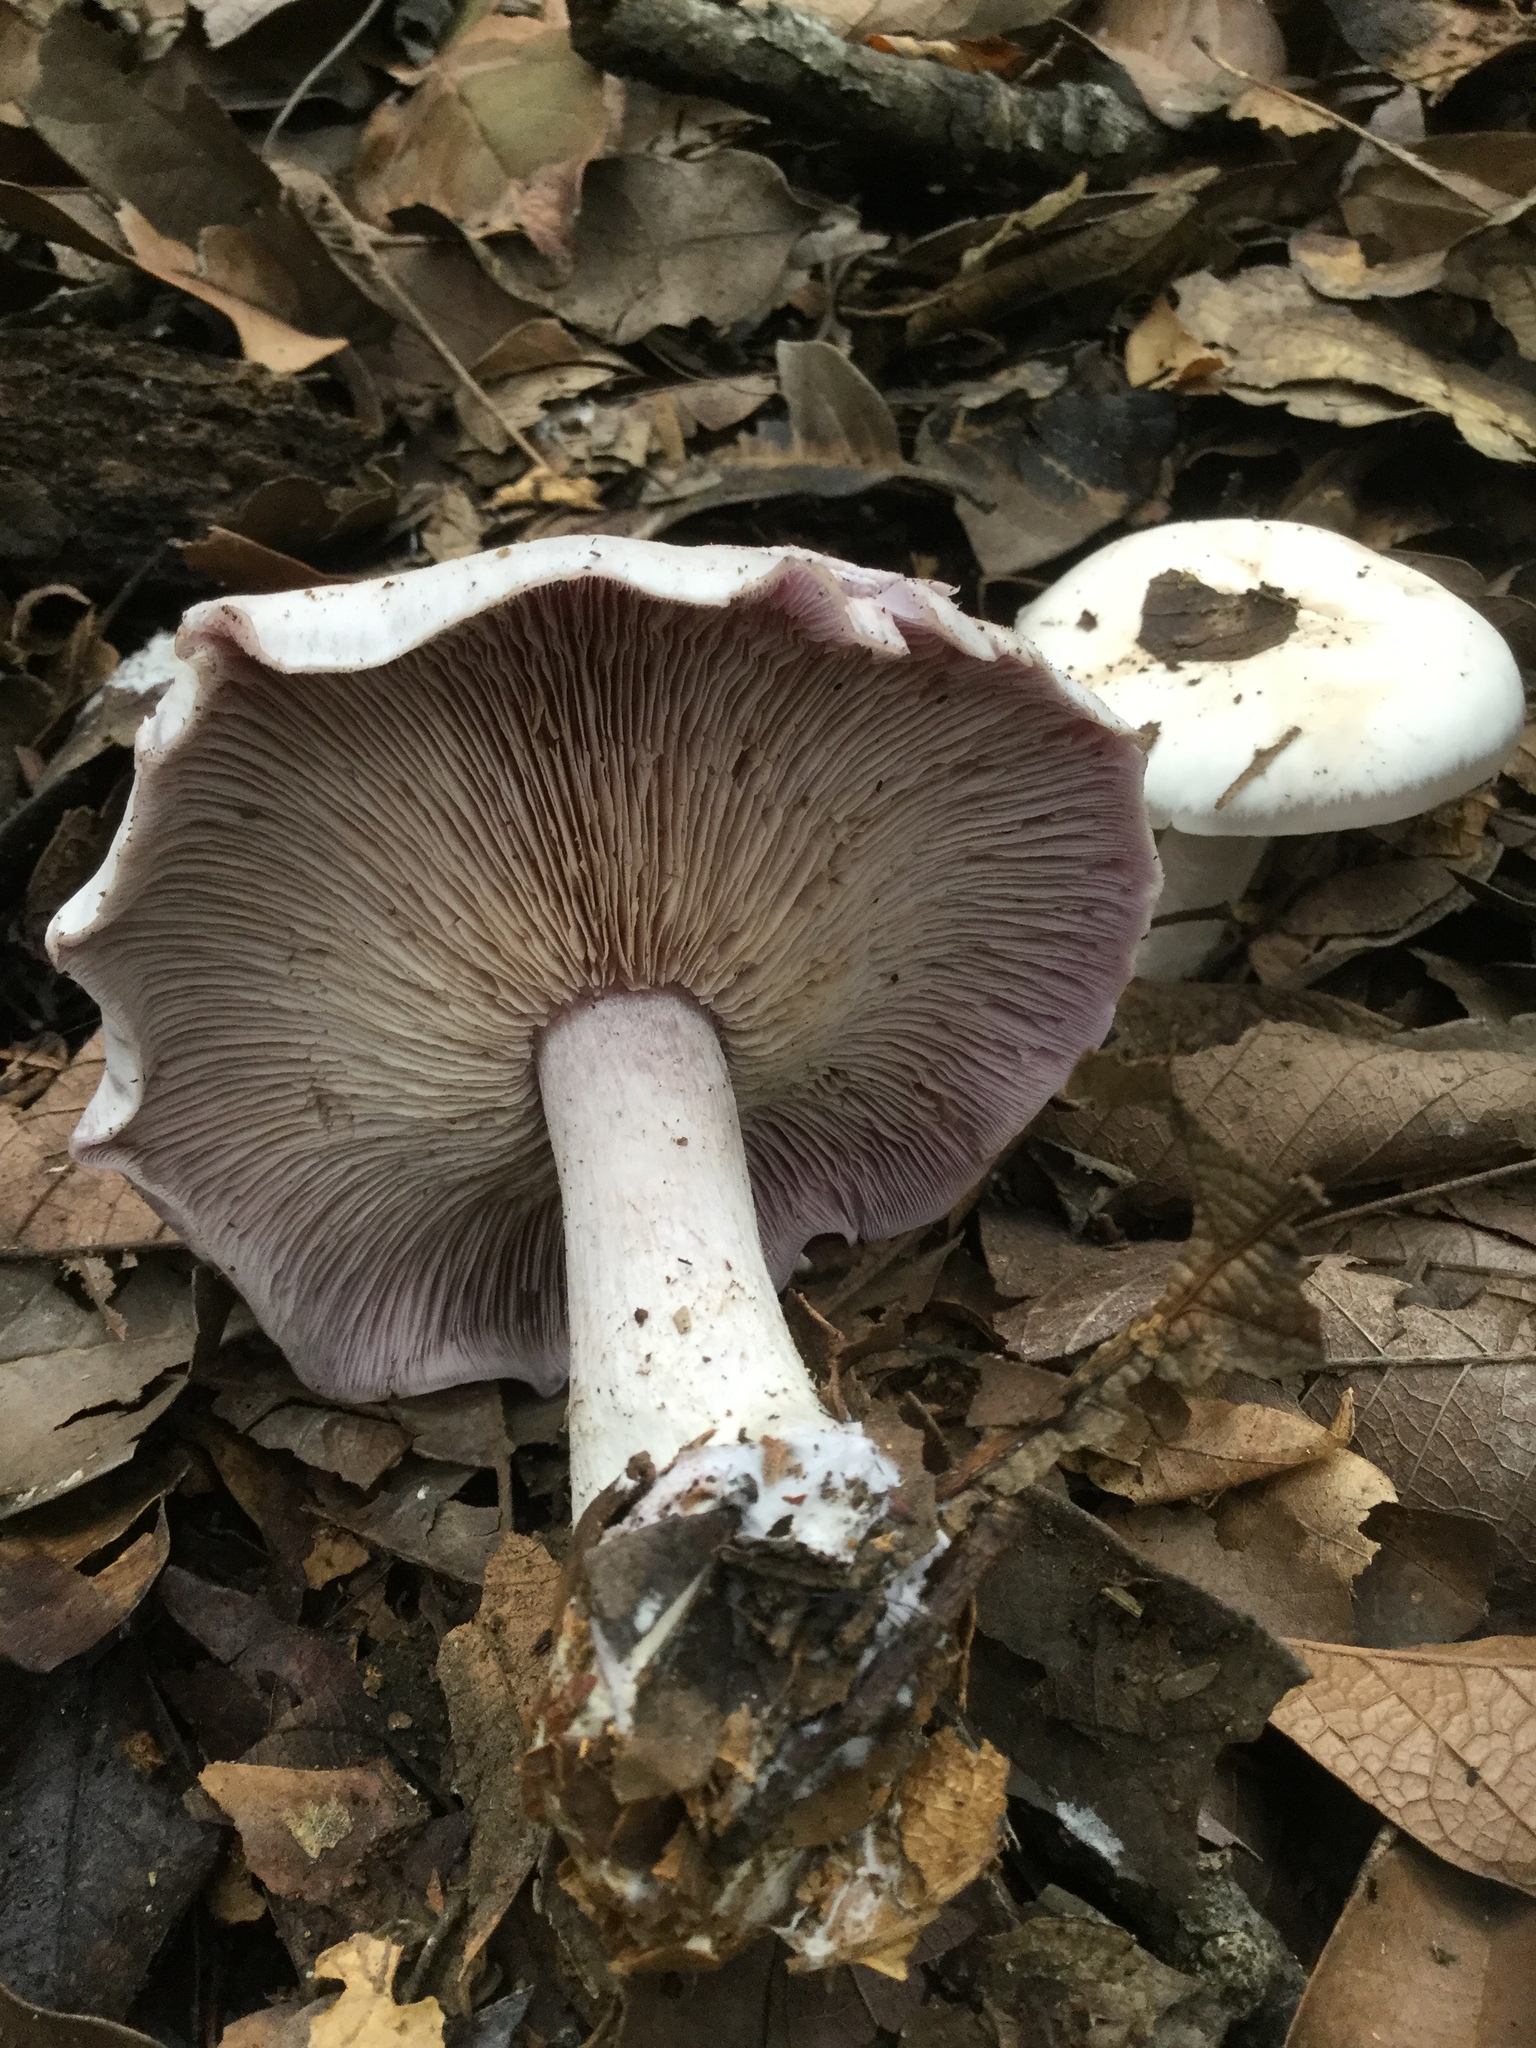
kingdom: Fungi
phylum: Basidiomycota
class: Agaricomycetes
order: Agaricales
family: Tricholomataceae
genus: Collybia
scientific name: Collybia
